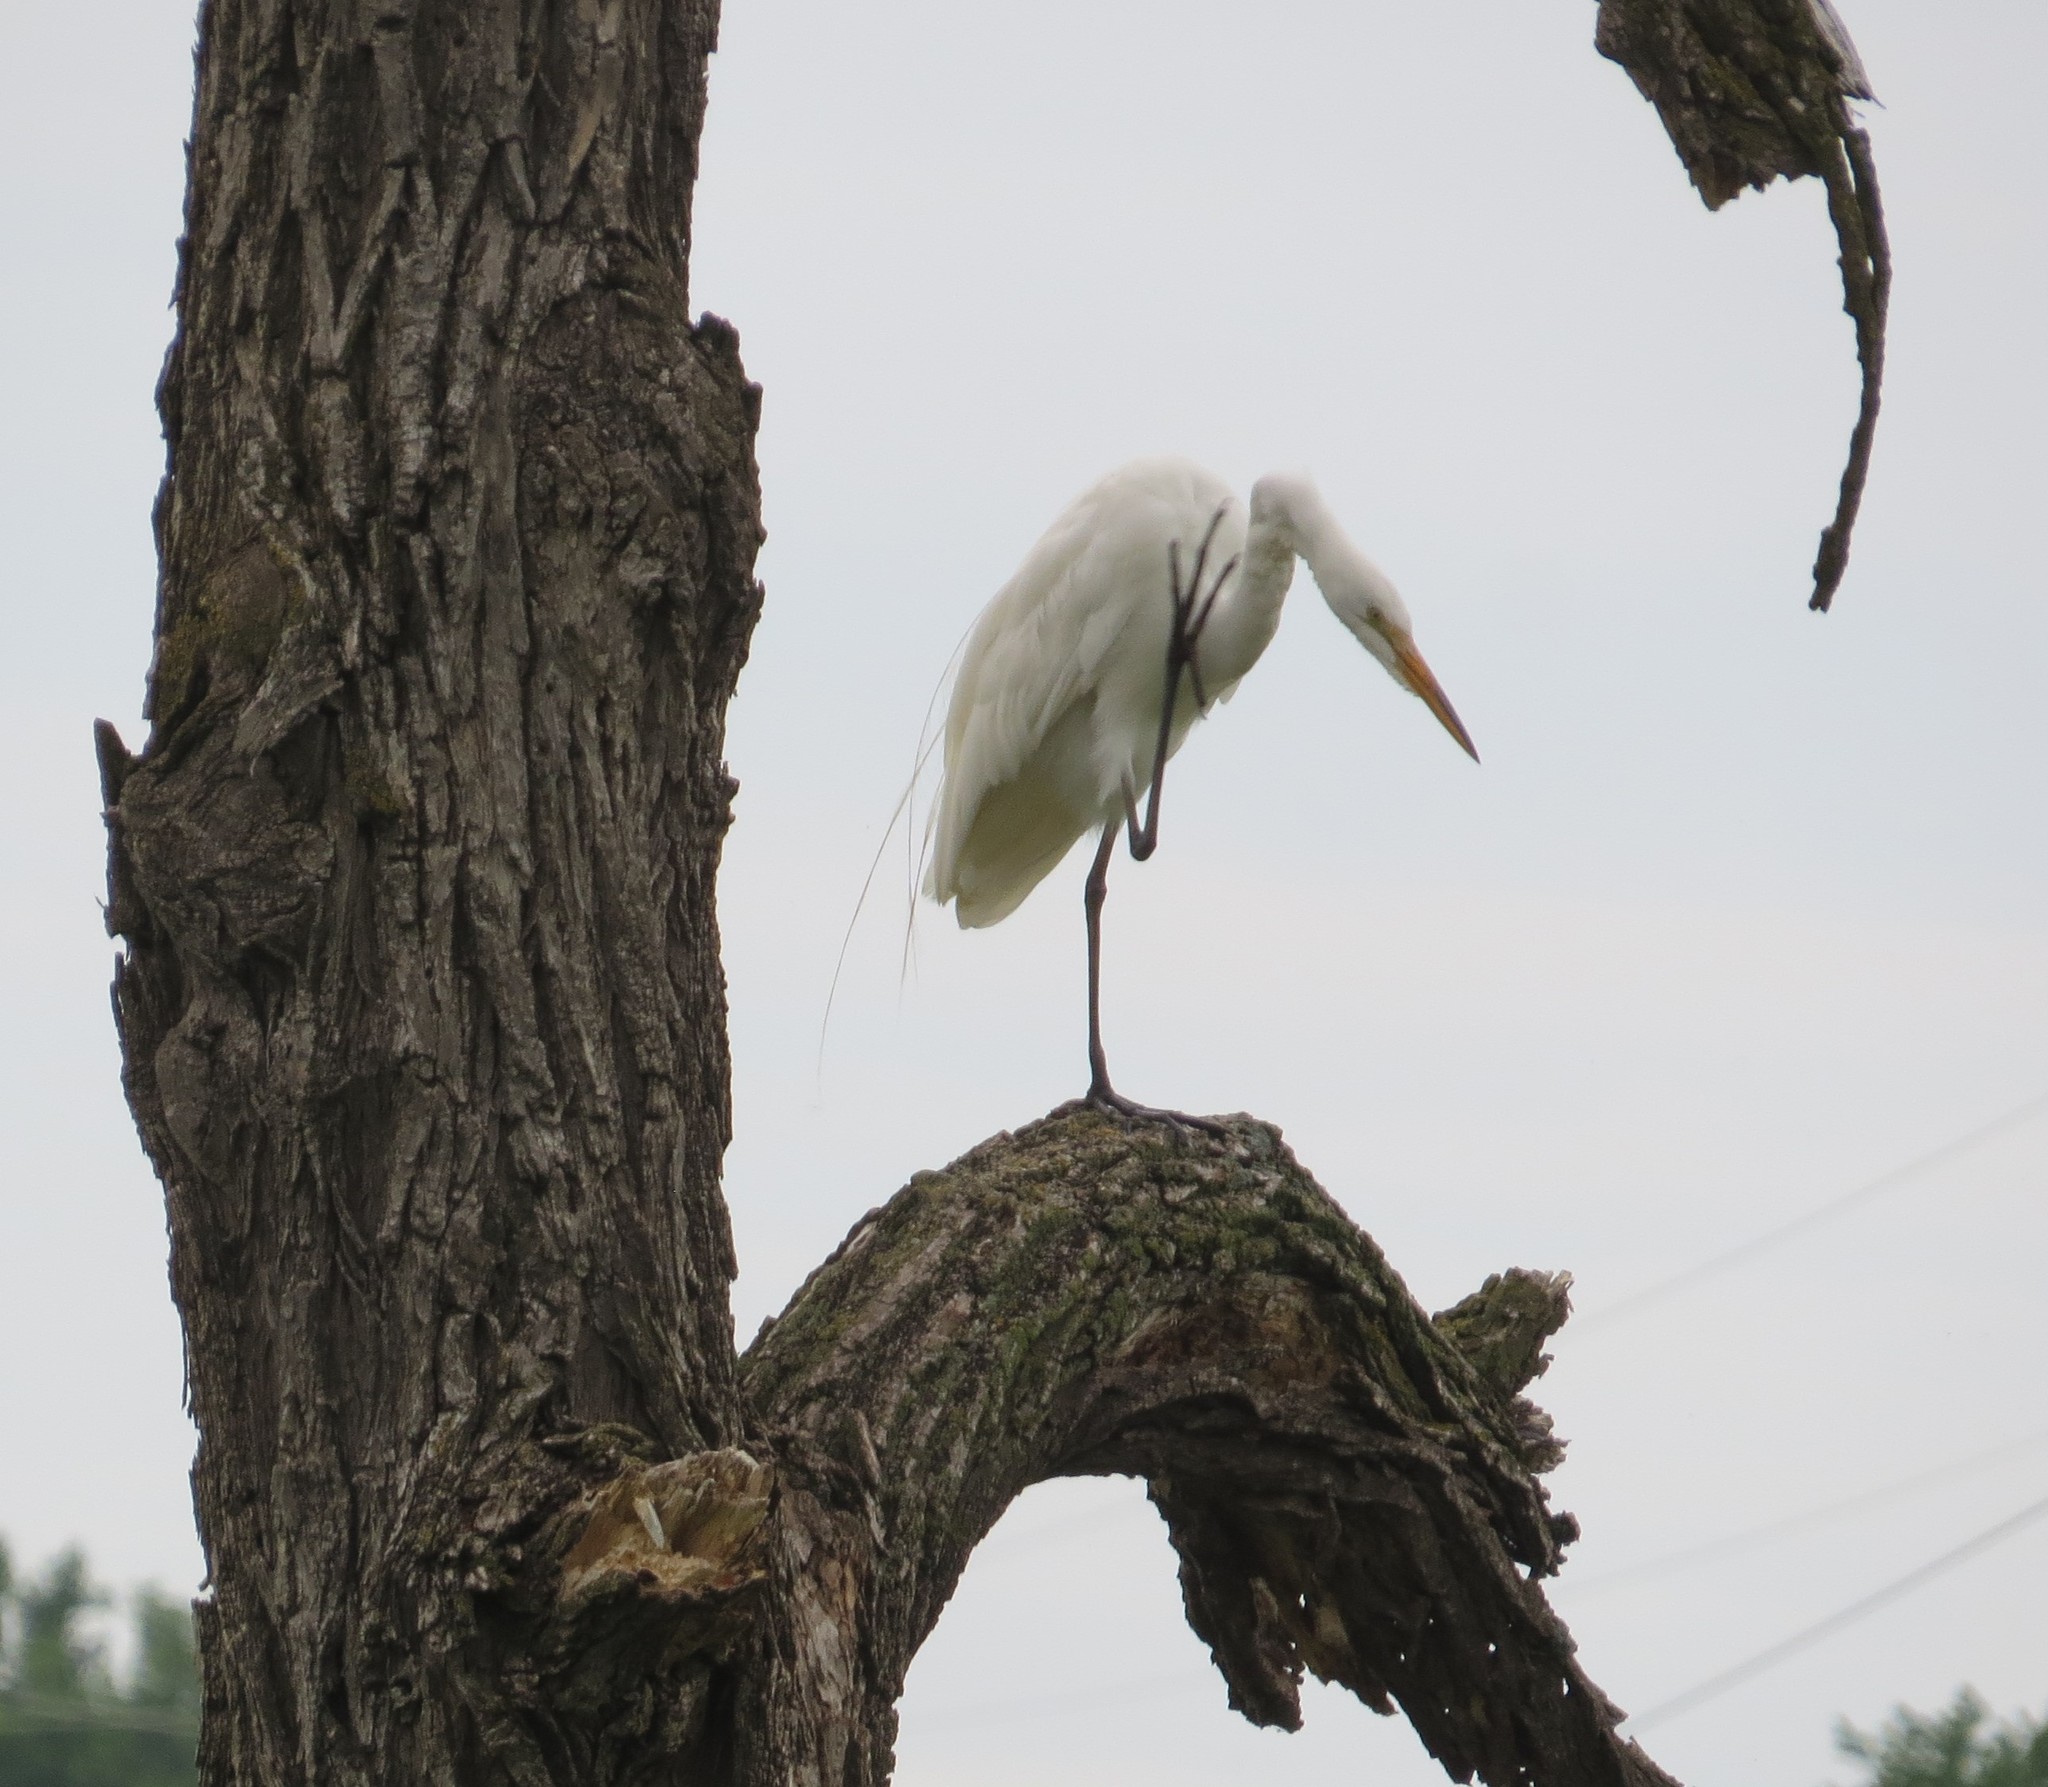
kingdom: Animalia
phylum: Chordata
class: Aves
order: Pelecaniformes
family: Ardeidae
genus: Ardea
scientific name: Ardea alba
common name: Great egret
